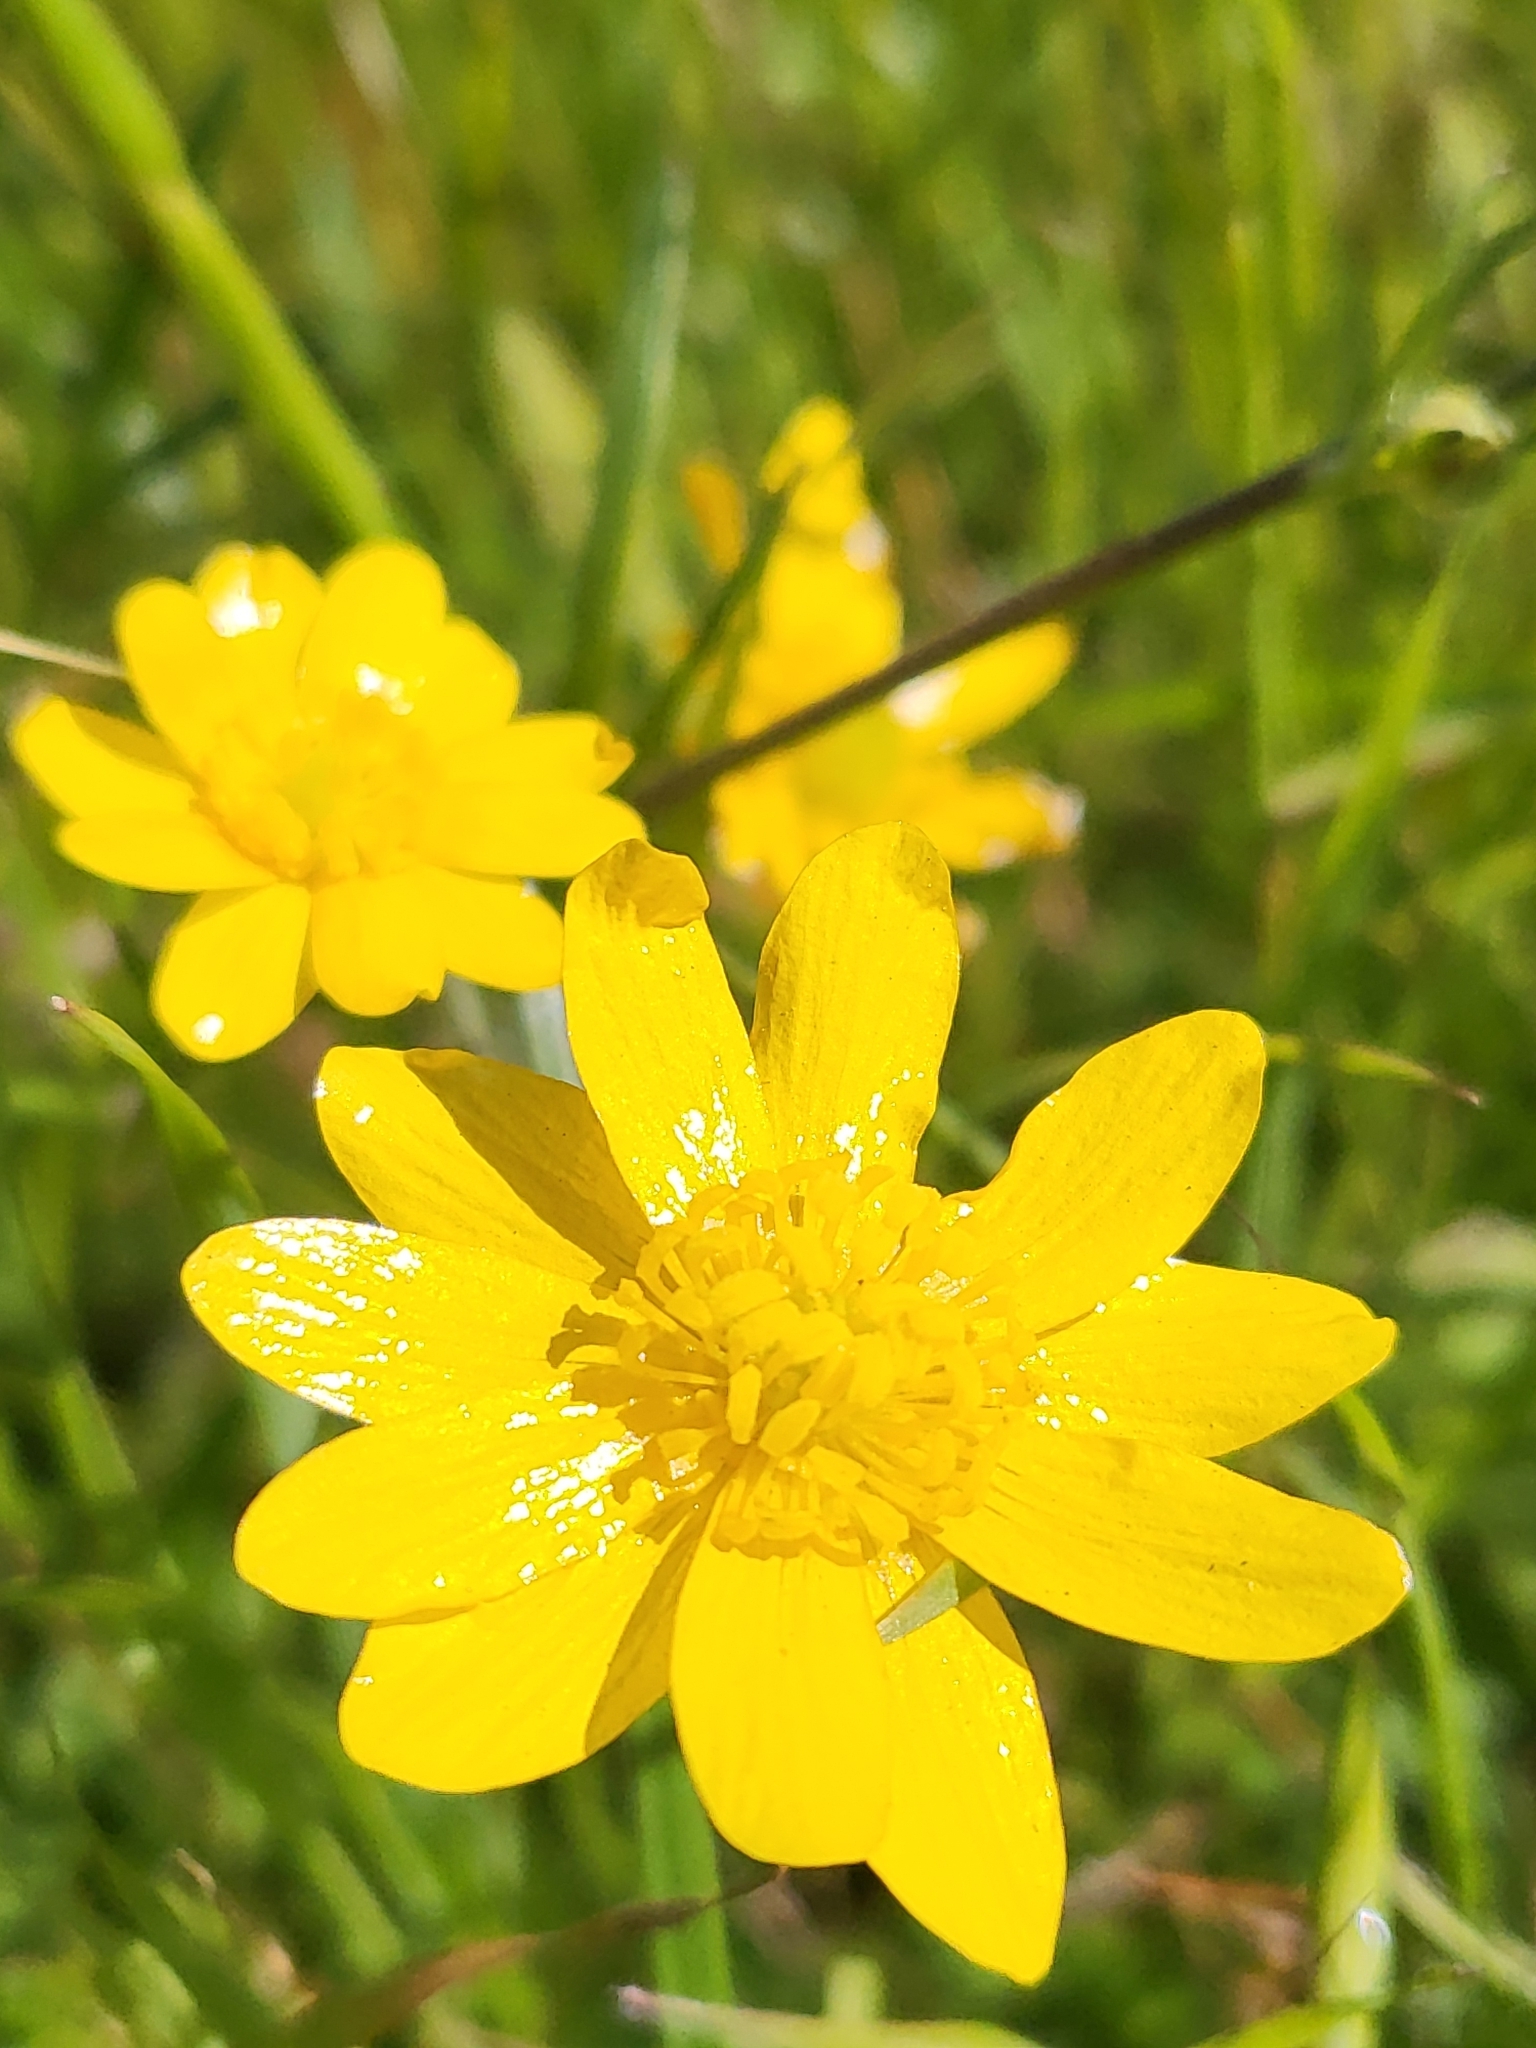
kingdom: Plantae
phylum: Tracheophyta
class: Magnoliopsida
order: Ranunculales
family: Ranunculaceae
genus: Ranunculus
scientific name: Ranunculus californicus
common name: California buttercup
